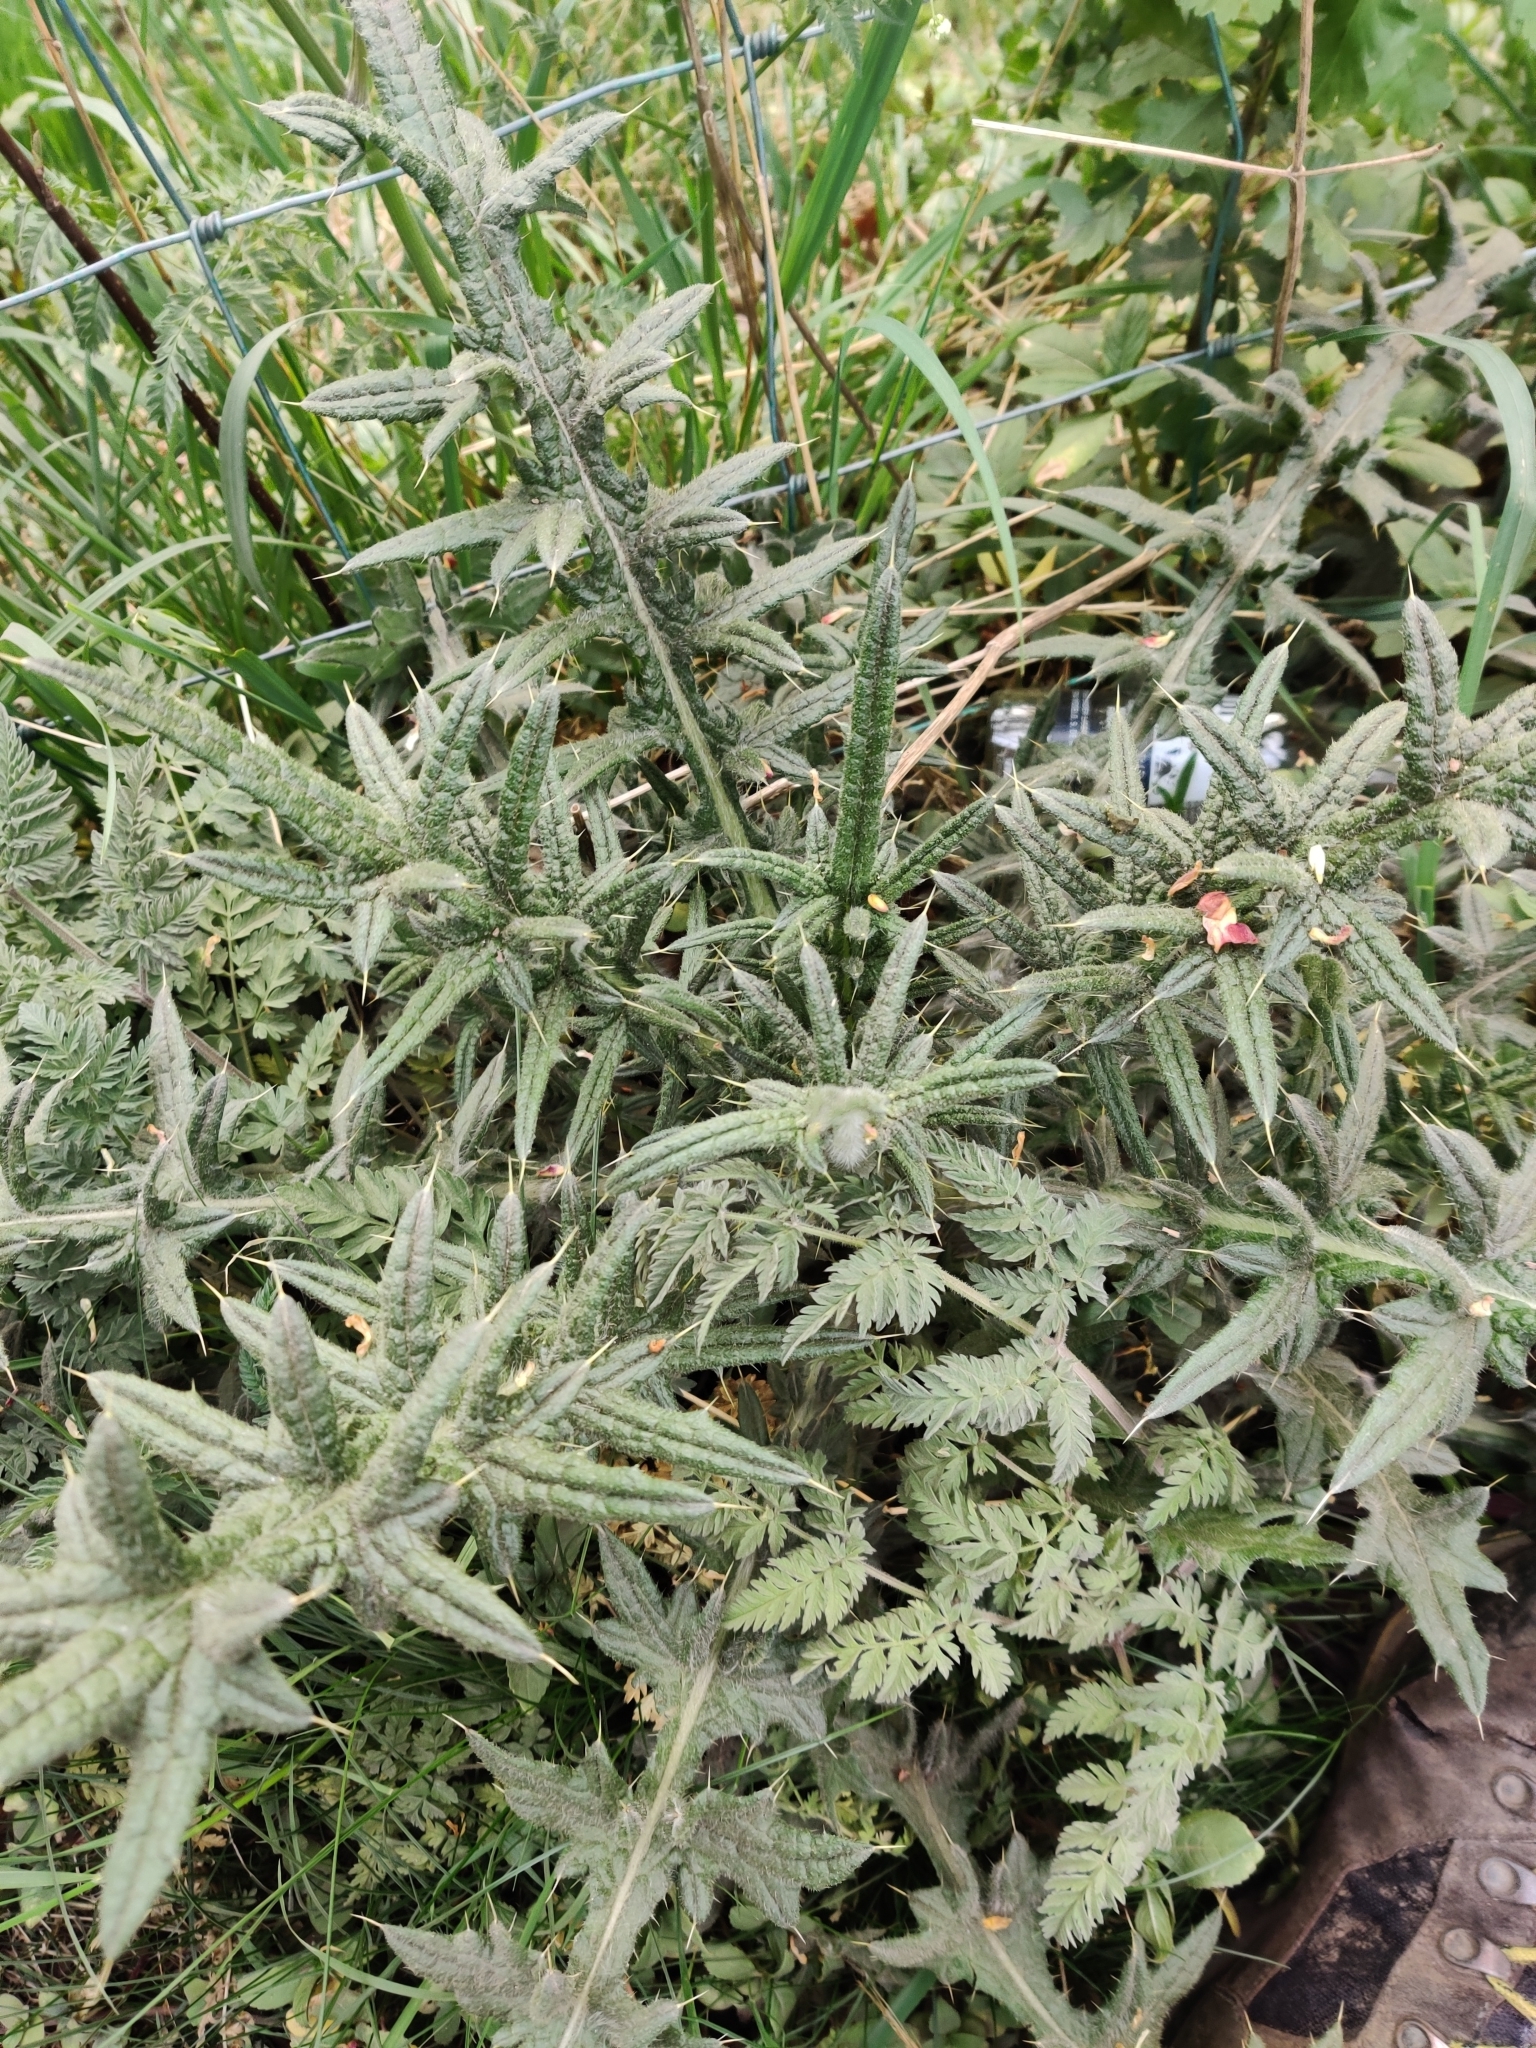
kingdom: Plantae
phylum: Tracheophyta
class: Magnoliopsida
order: Asterales
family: Asteraceae
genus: Cirsium
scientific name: Cirsium vulgare
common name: Bull thistle
